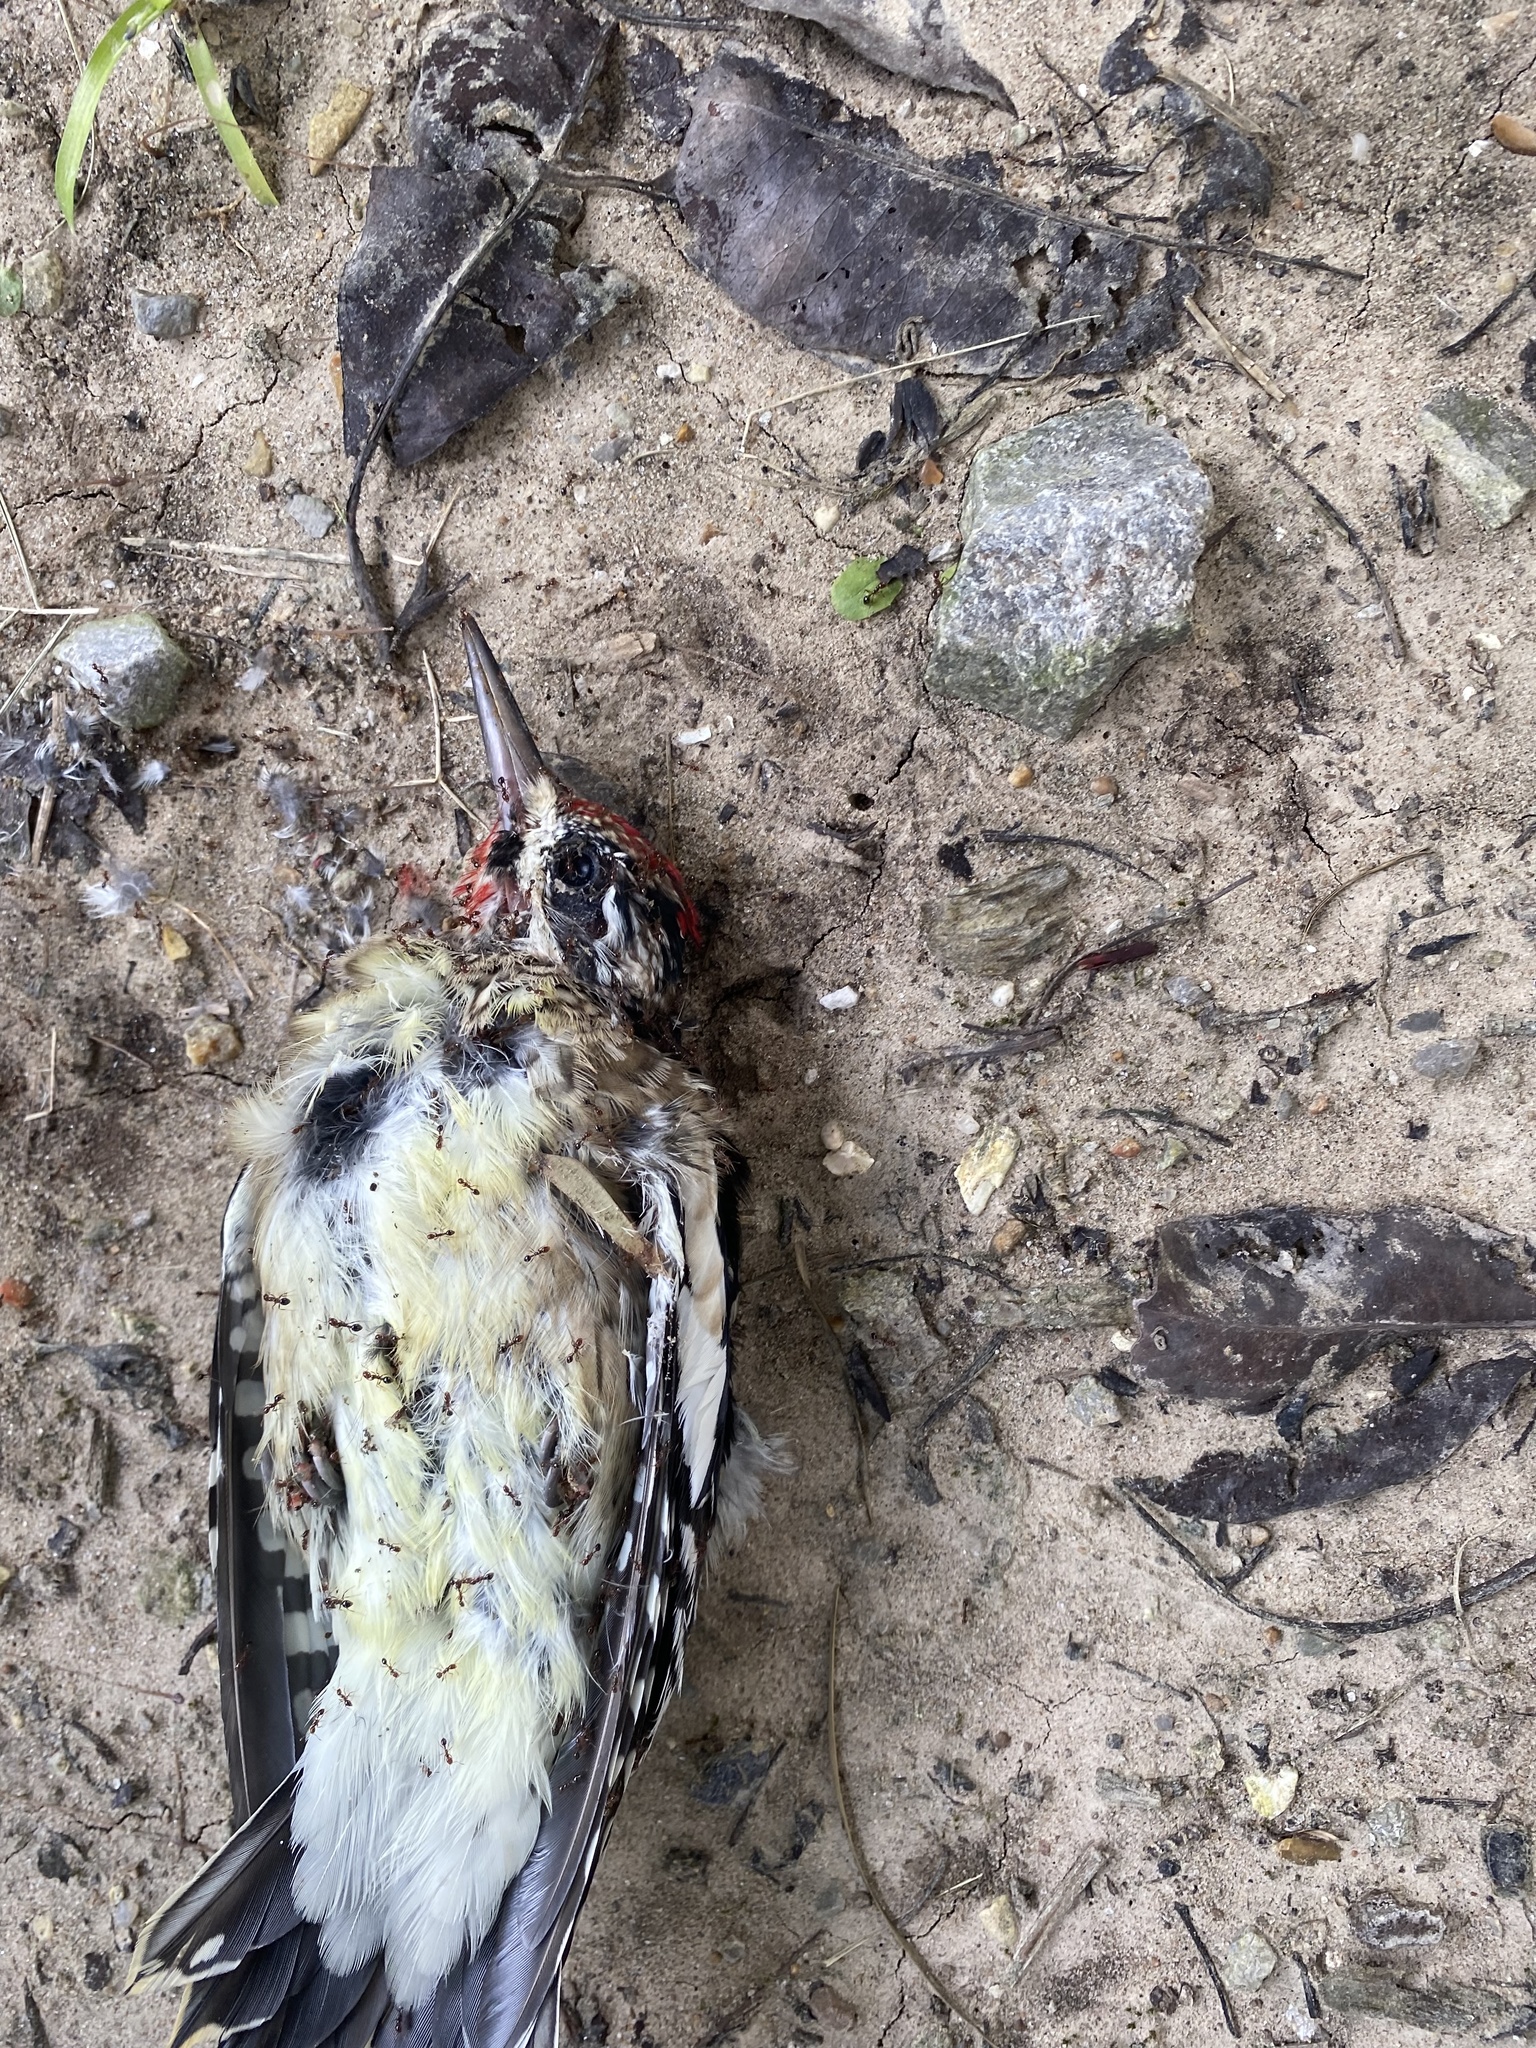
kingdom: Animalia
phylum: Chordata
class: Aves
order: Piciformes
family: Picidae
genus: Sphyrapicus
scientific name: Sphyrapicus varius
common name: Yellow-bellied sapsucker
